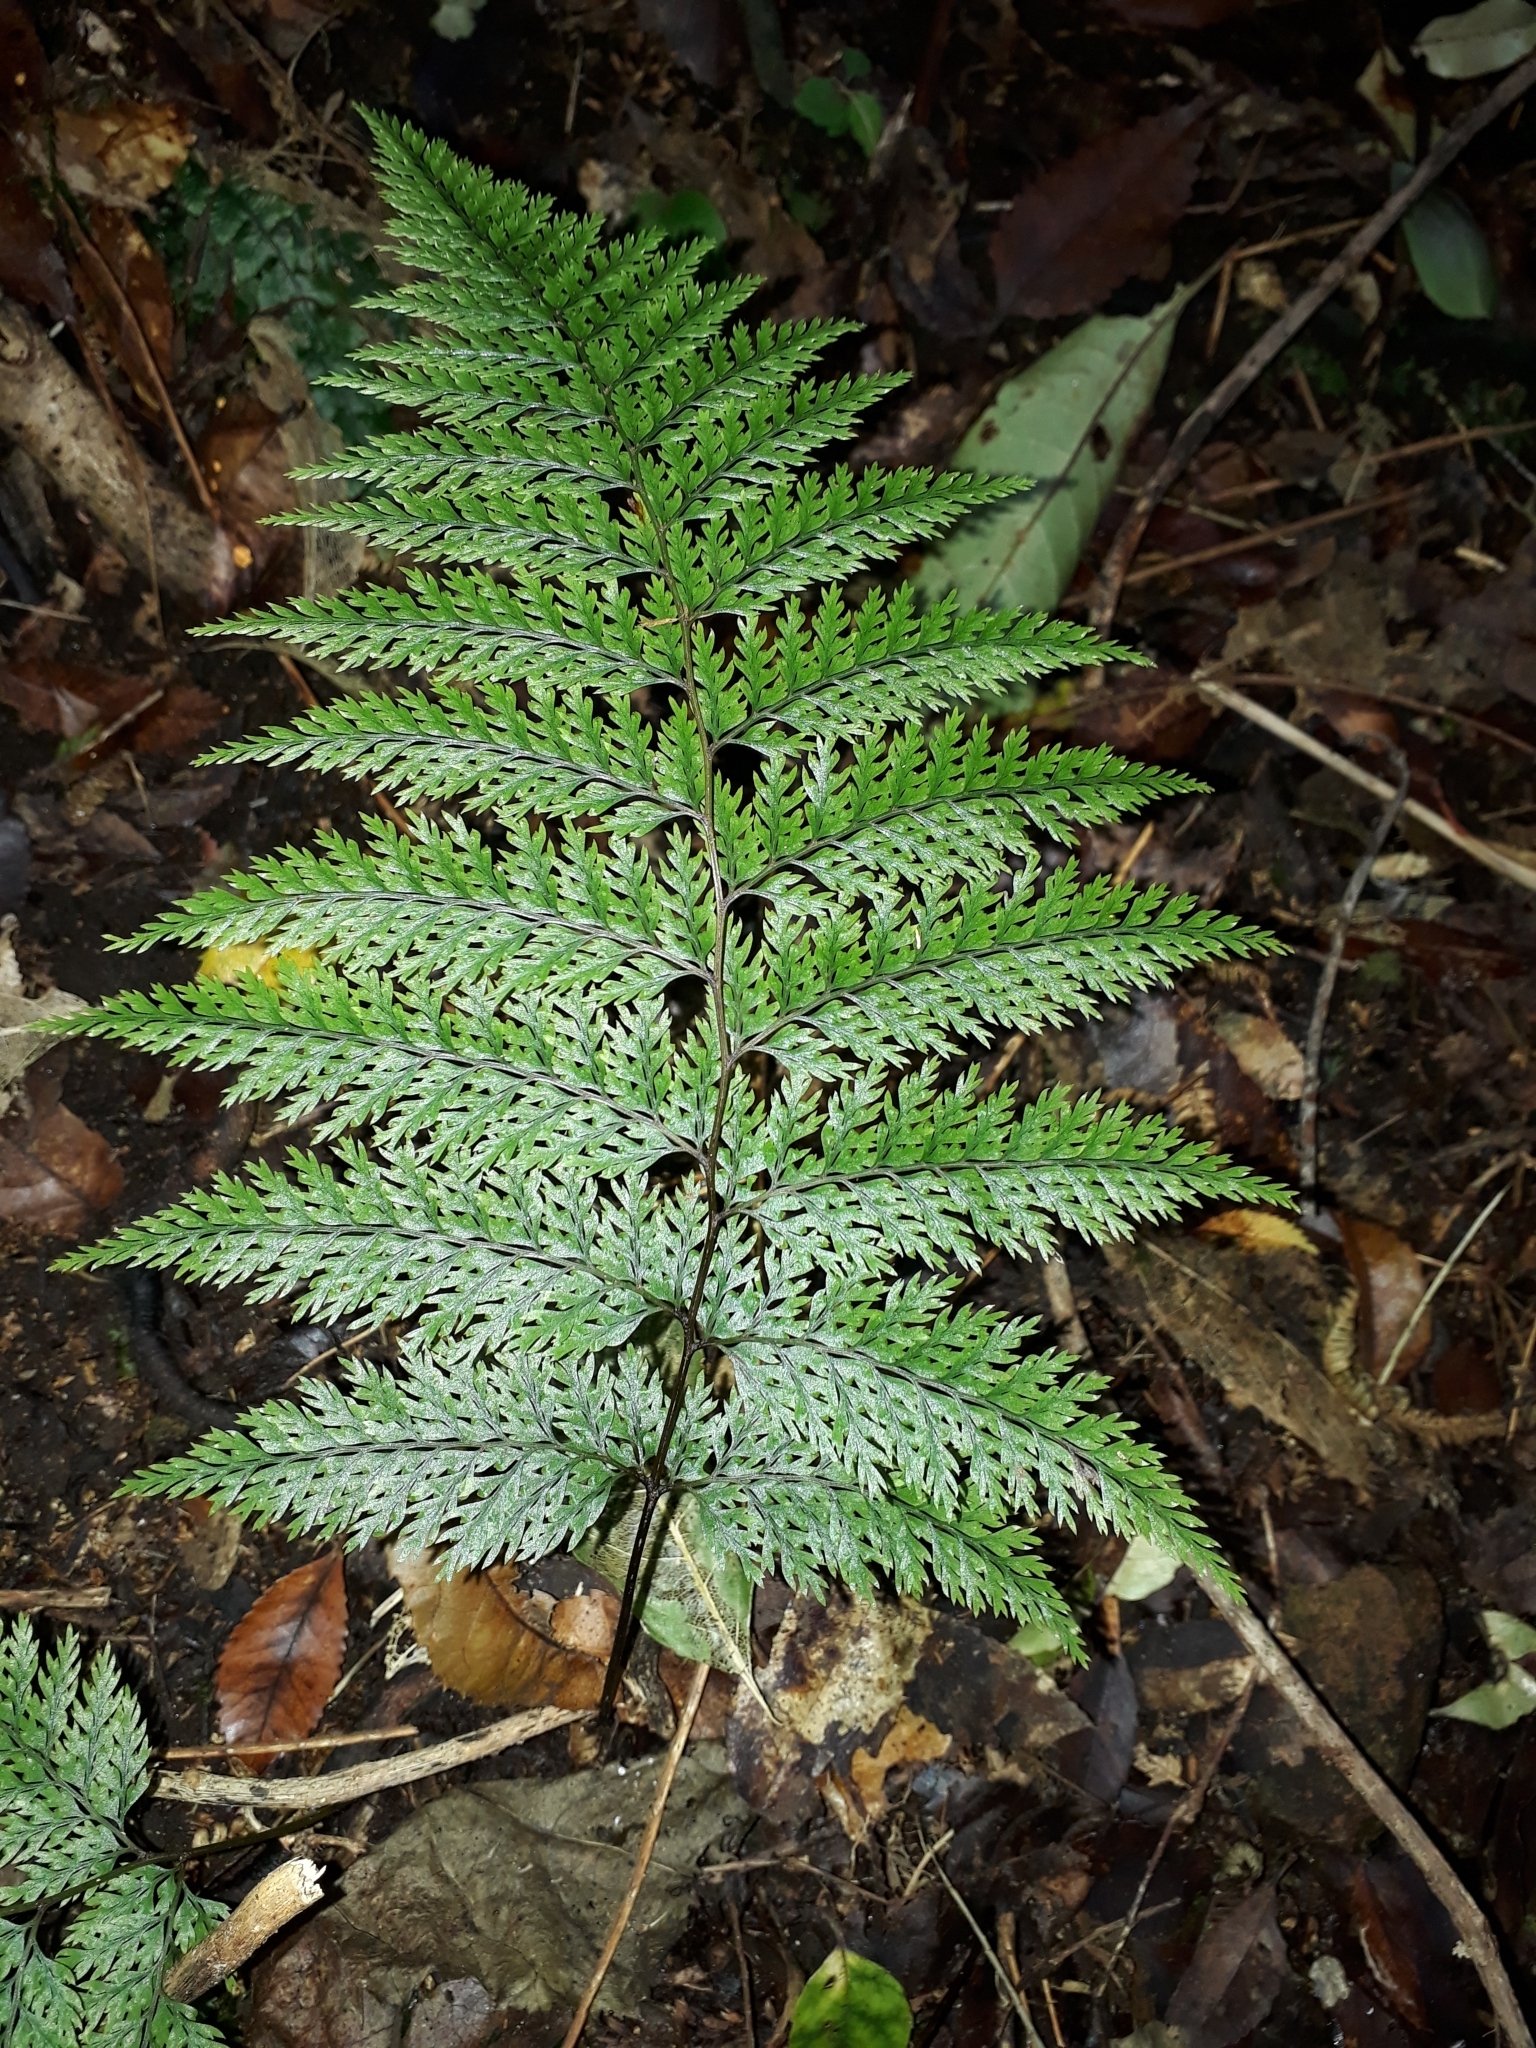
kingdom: Plantae
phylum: Tracheophyta
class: Polypodiopsida
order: Polypodiales
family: Dennstaedtiaceae
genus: Dennstaedtia
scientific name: Dennstaedtia novae-zelandiae
